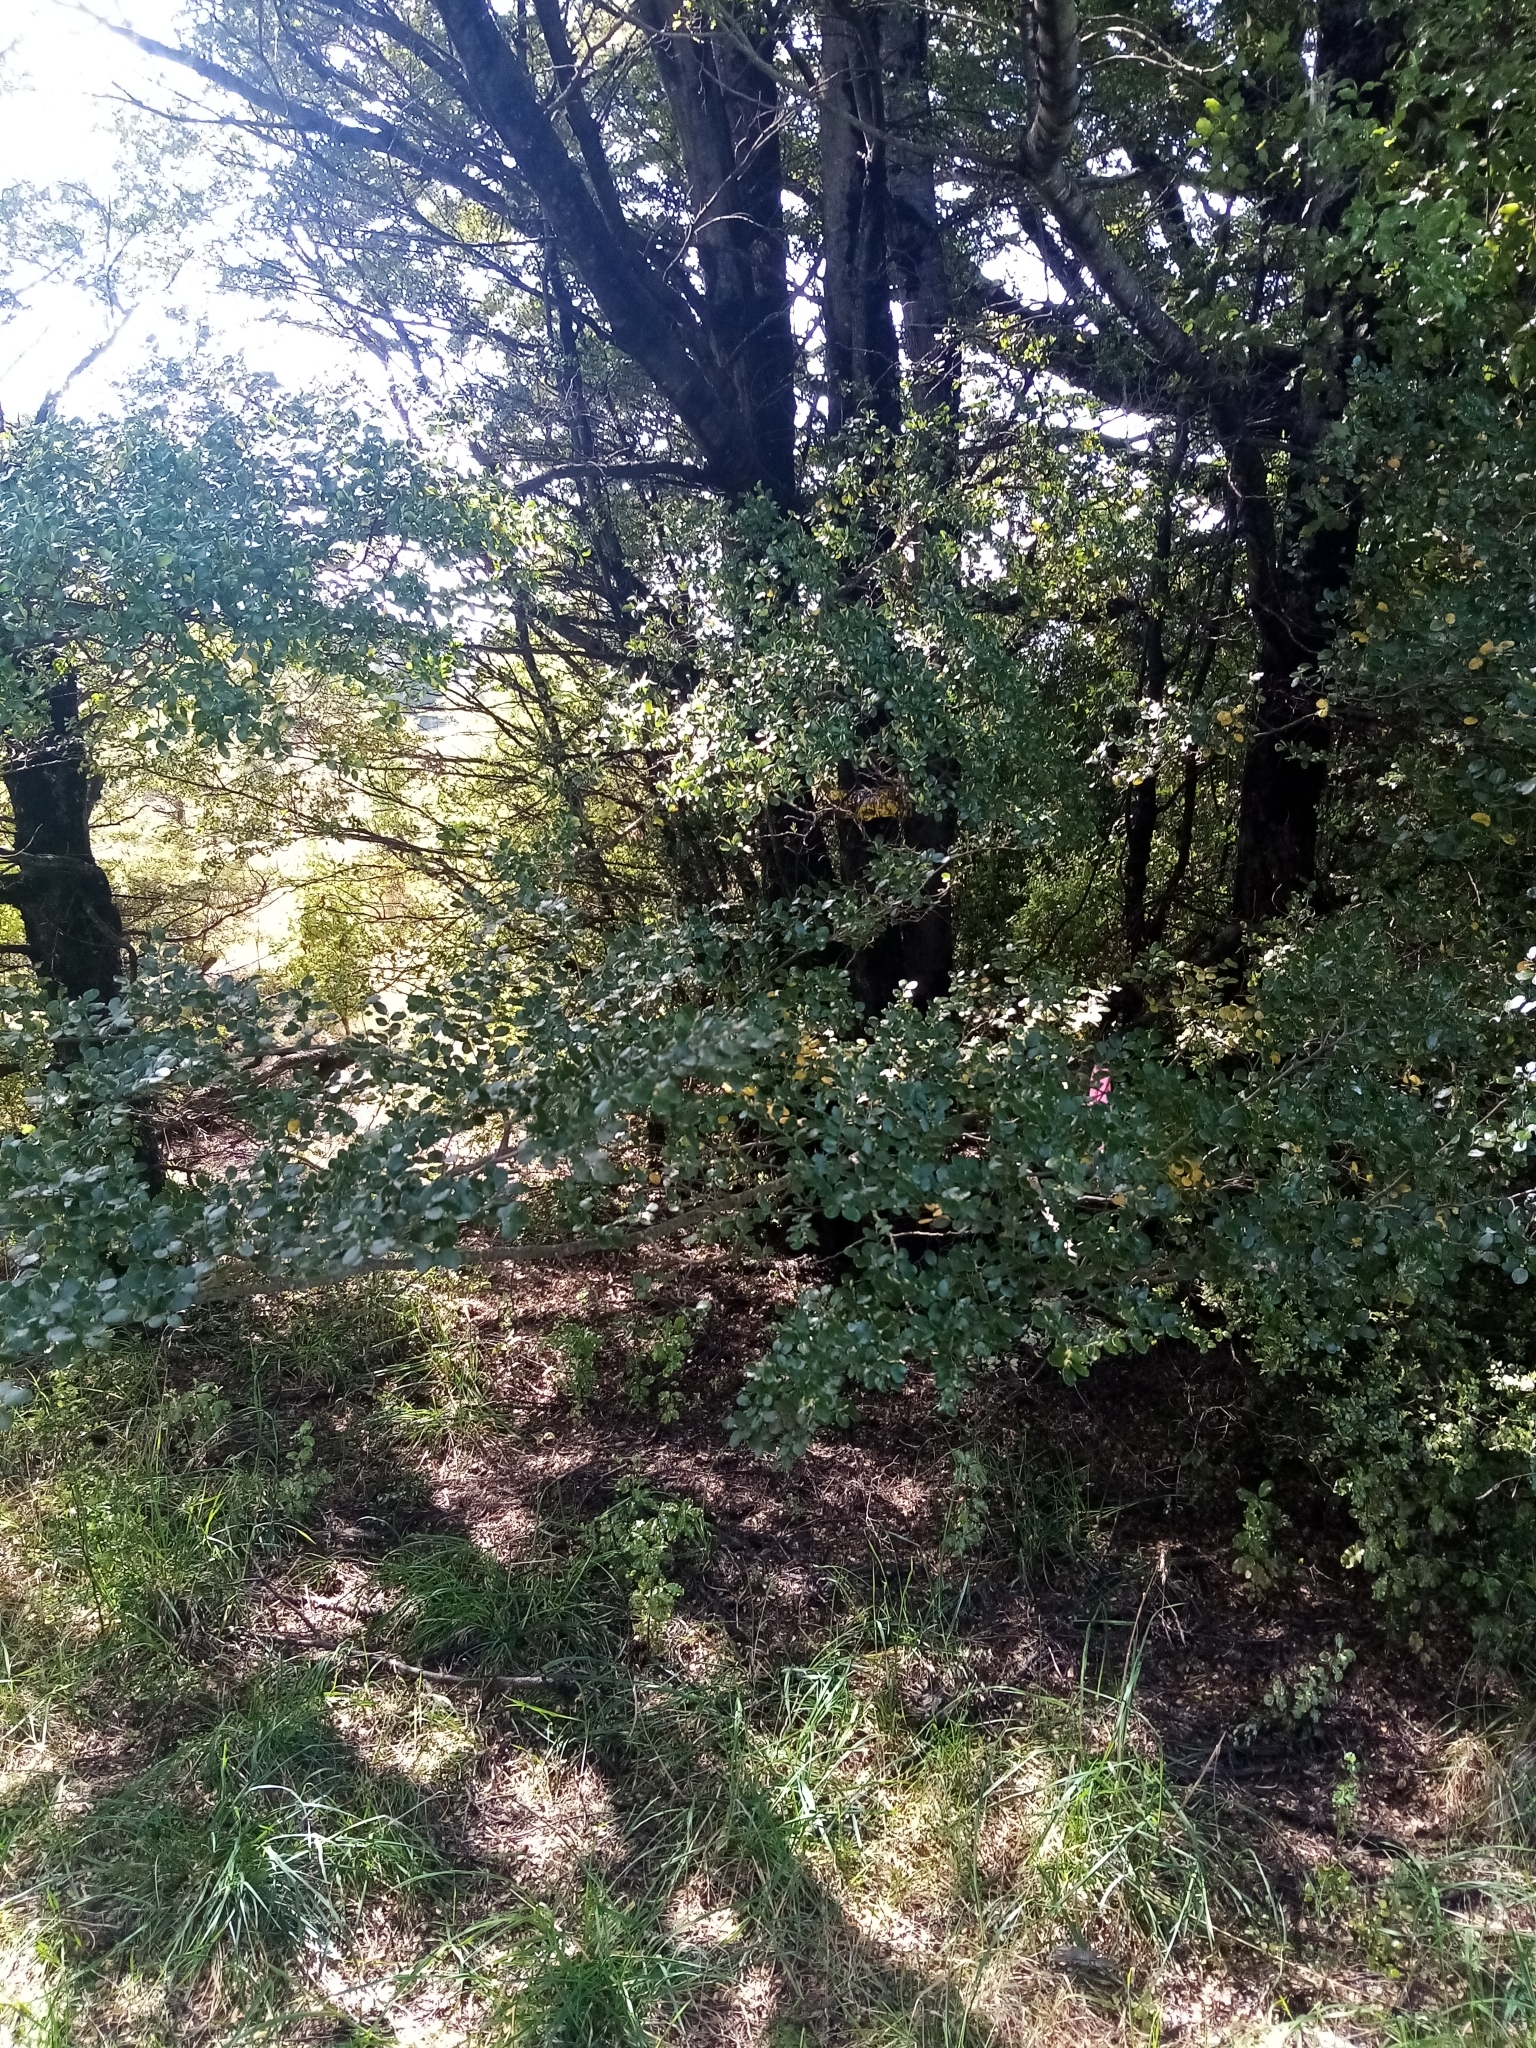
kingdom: Plantae
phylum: Tracheophyta
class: Magnoliopsida
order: Fagales
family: Nothofagaceae
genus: Nothofagus
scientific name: Nothofagus solandri
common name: Black beech
